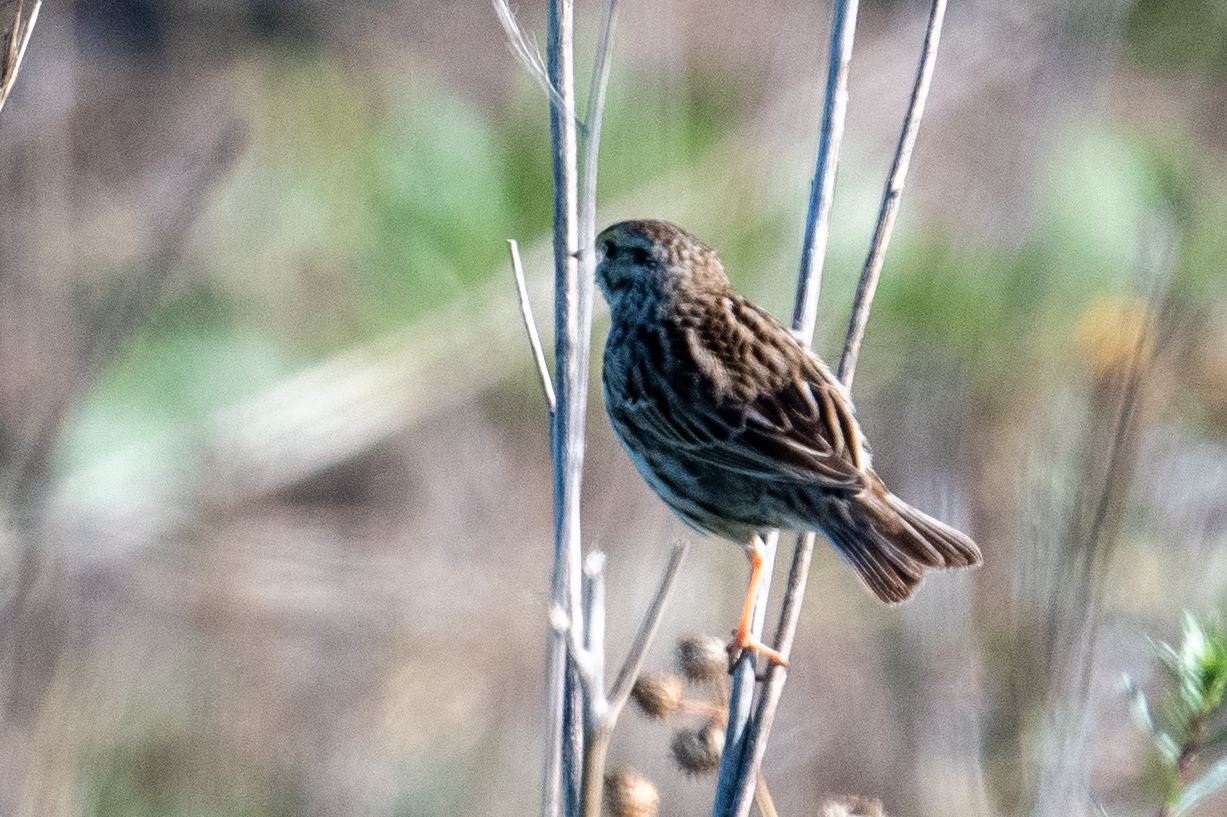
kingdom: Animalia
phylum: Chordata
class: Aves
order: Passeriformes
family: Passerellidae
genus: Passerculus
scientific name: Passerculus sandwichensis
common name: Savannah sparrow
